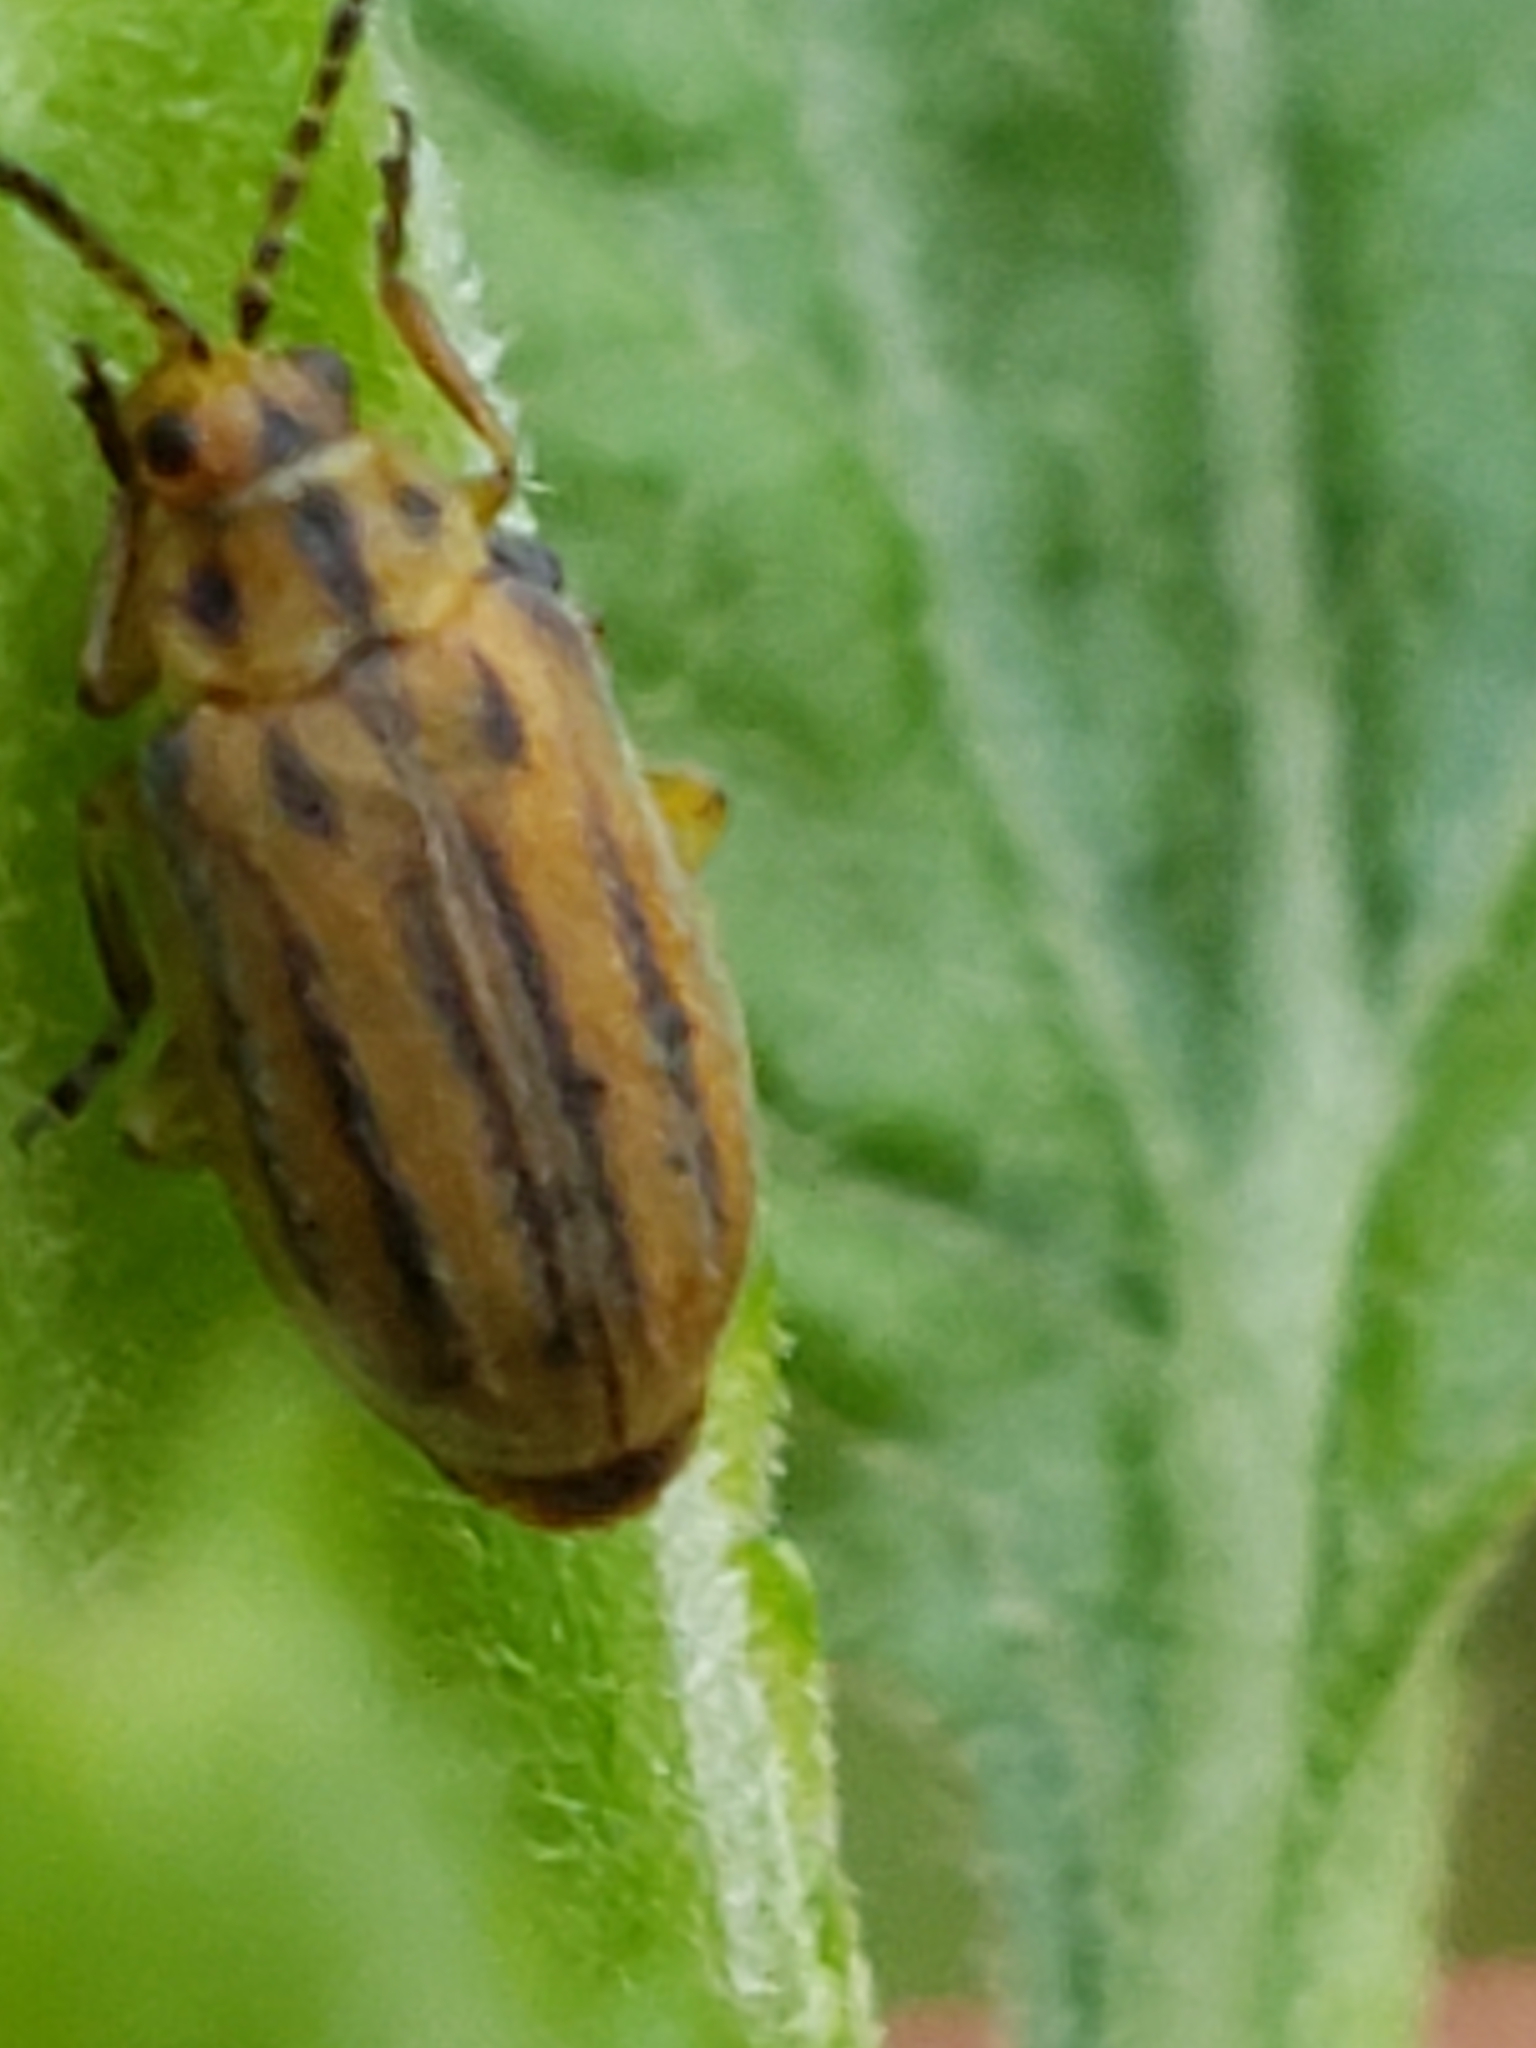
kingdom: Animalia
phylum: Arthropoda
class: Insecta
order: Coleoptera
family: Chrysomelidae
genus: Ophraella
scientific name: Ophraella notata
